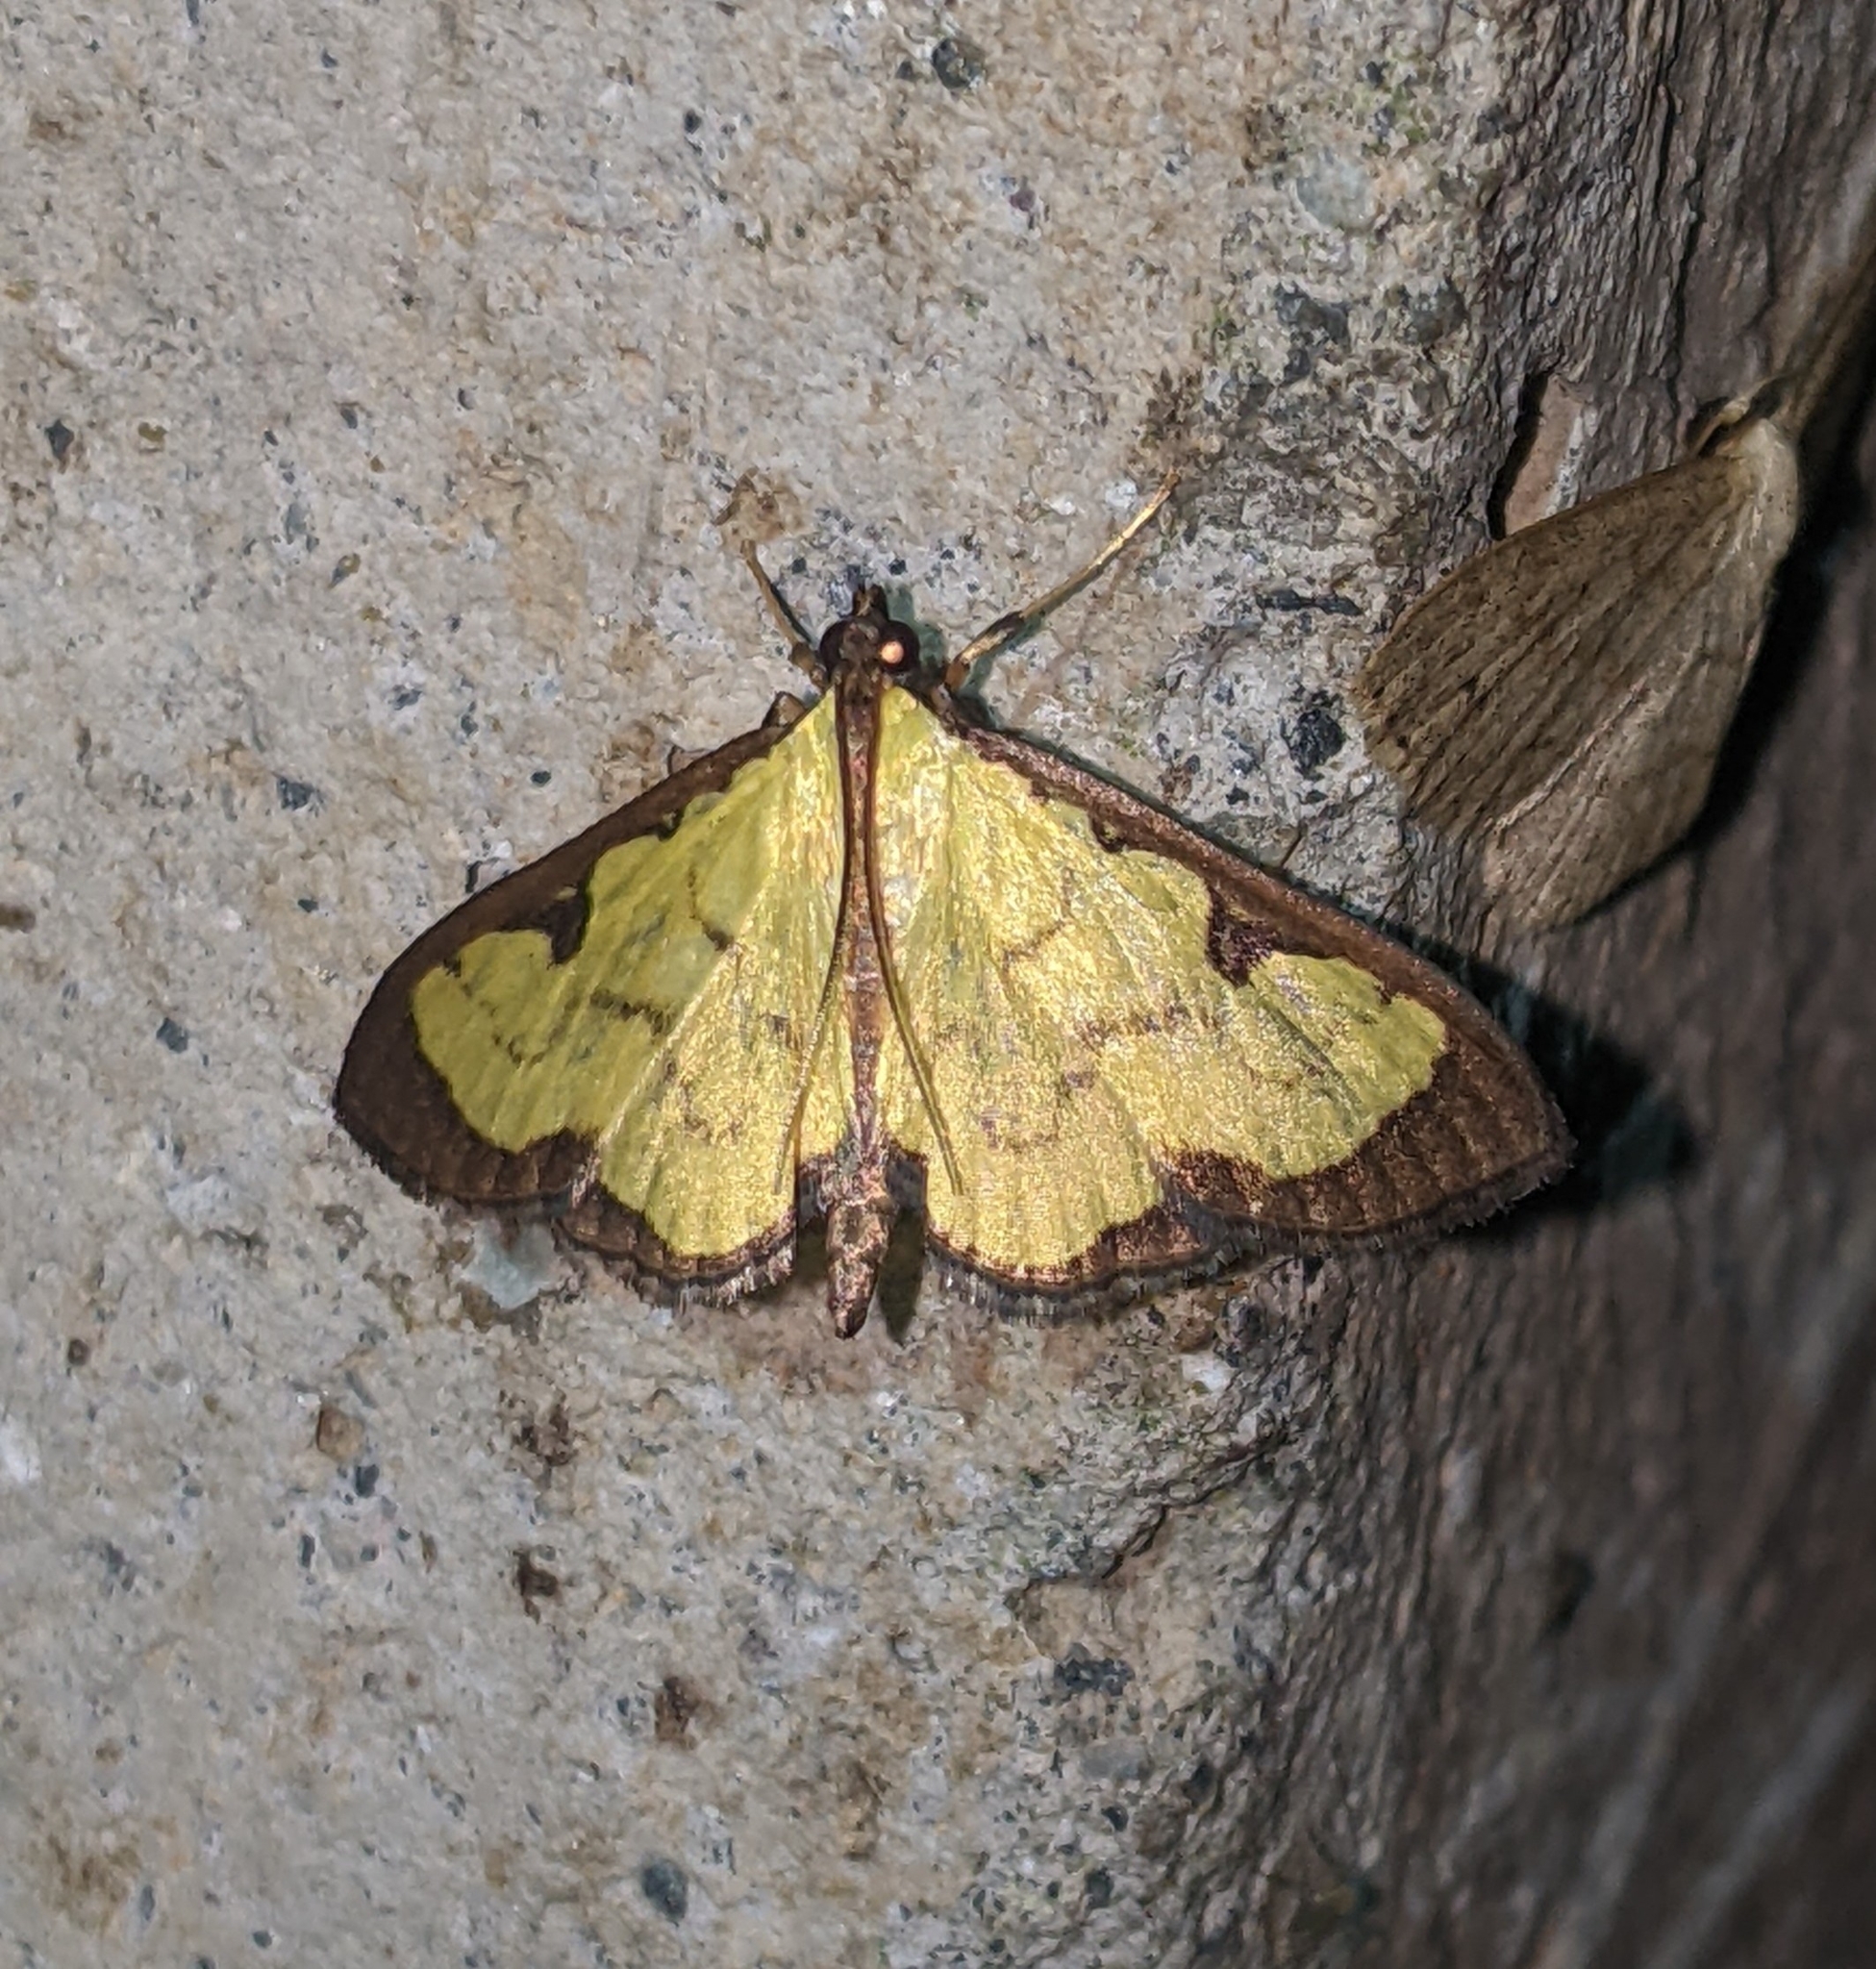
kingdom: Animalia
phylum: Arthropoda
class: Insecta
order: Lepidoptera
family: Crambidae
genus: Goniorhynchus
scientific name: Goniorhynchus
